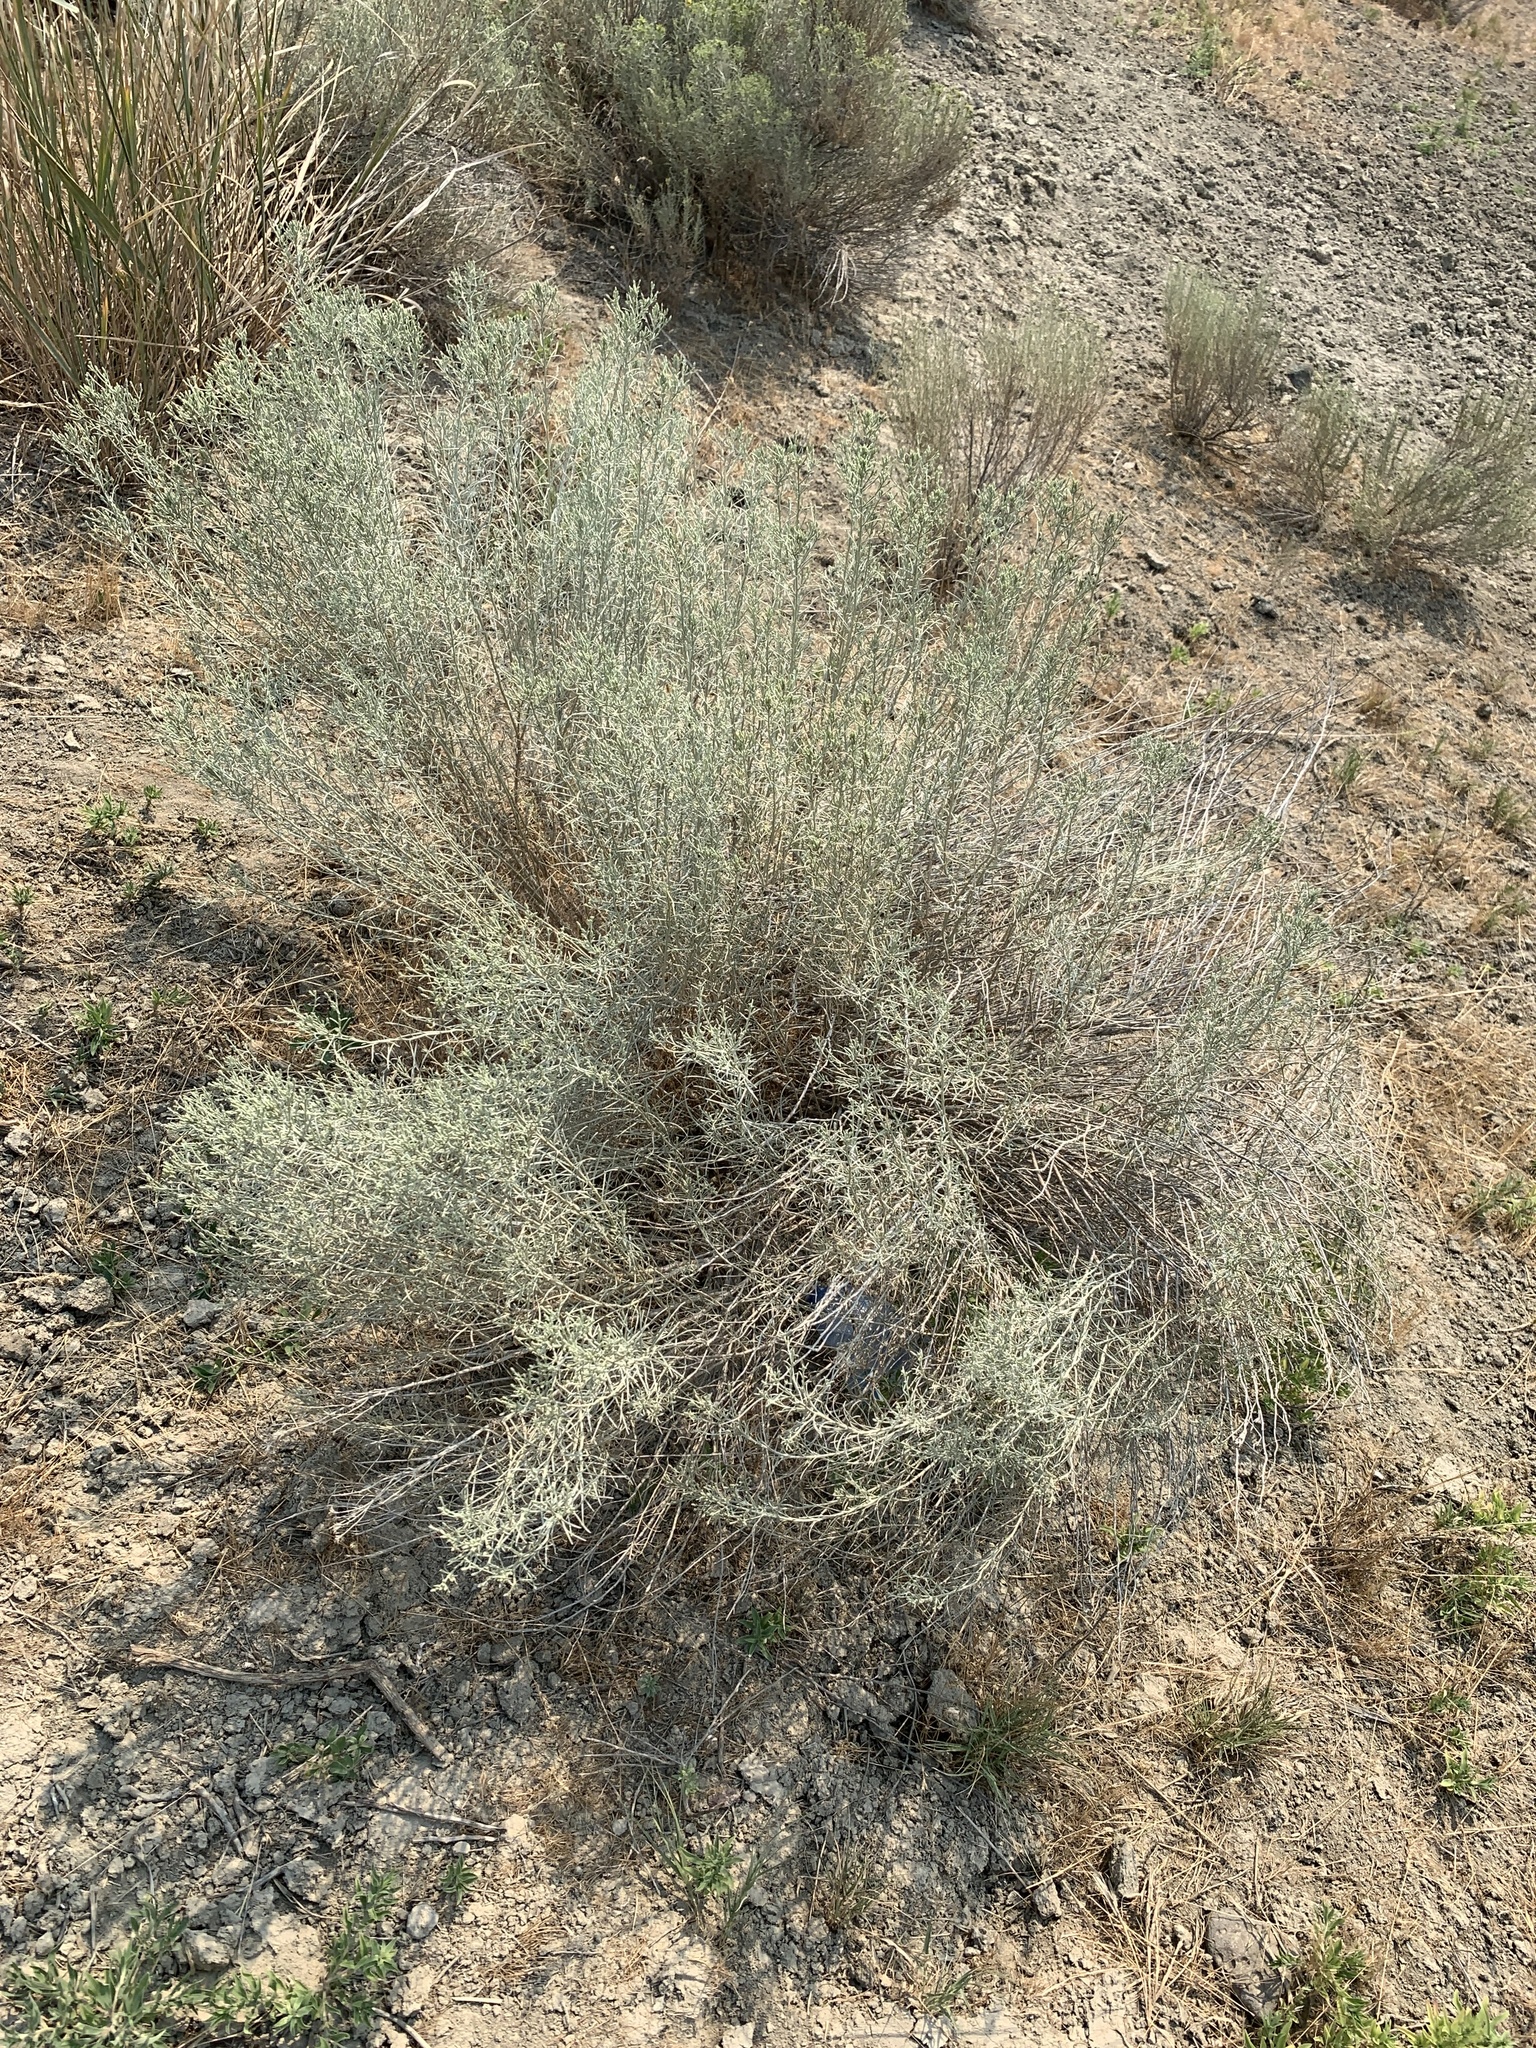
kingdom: Plantae
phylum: Tracheophyta
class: Magnoliopsida
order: Asterales
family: Asteraceae
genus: Ericameria
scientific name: Ericameria nauseosa
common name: Rubber rabbitbrush
